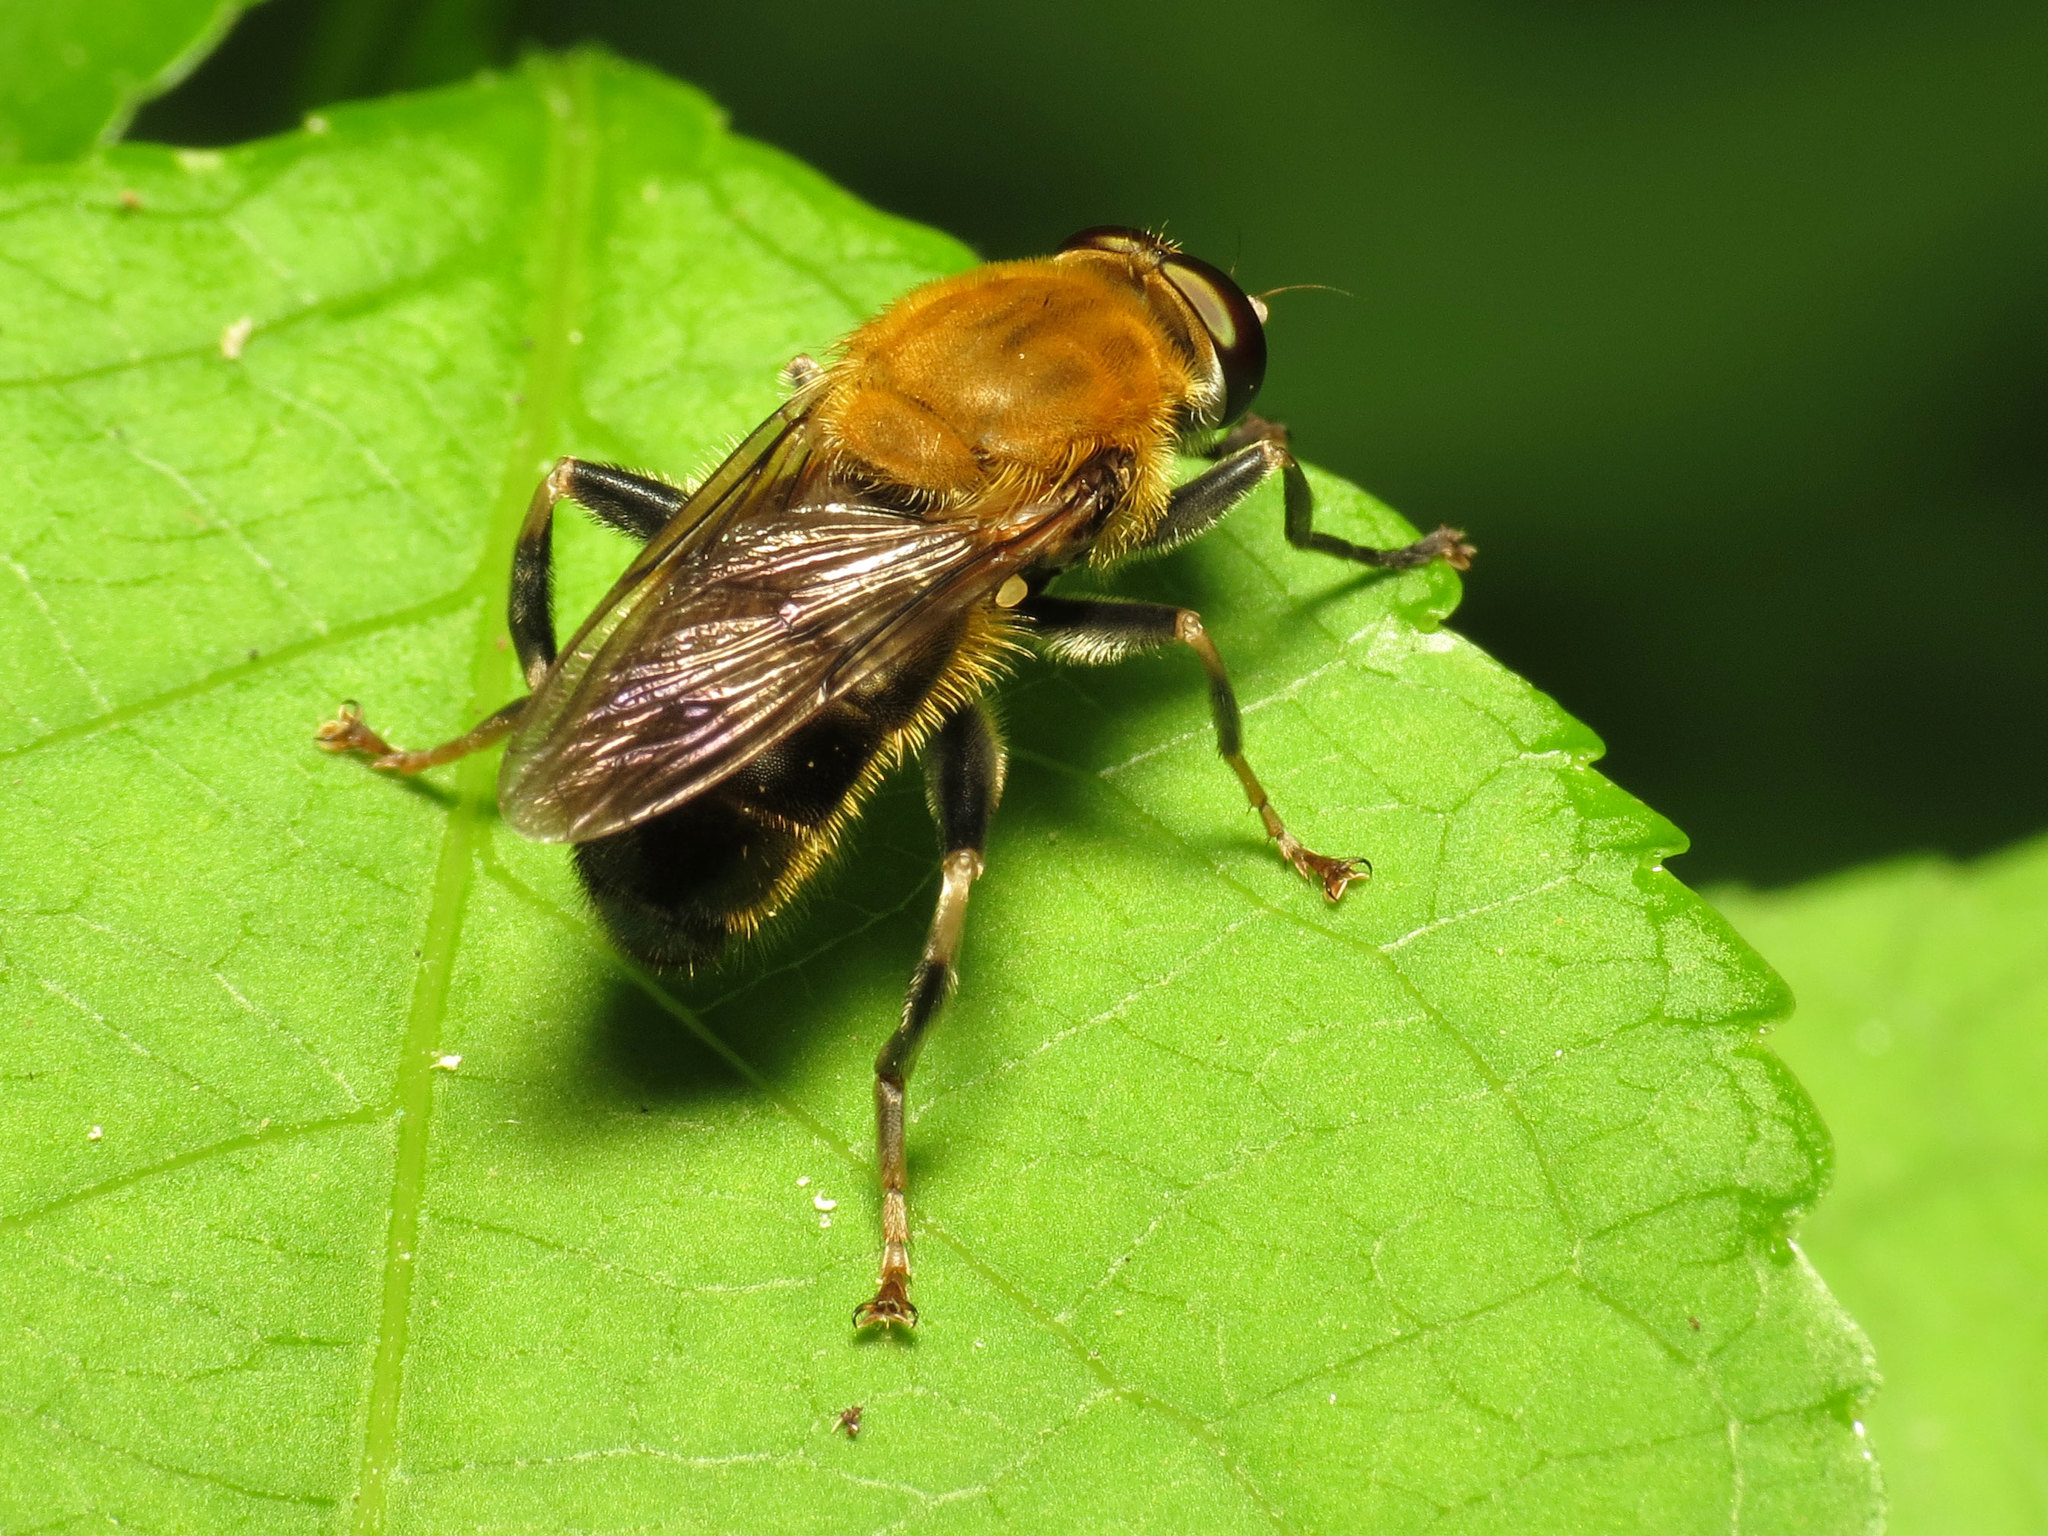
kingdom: Animalia
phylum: Arthropoda
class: Insecta
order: Diptera
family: Syrphidae
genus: Pterallastes
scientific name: Pterallastes thoracicus
